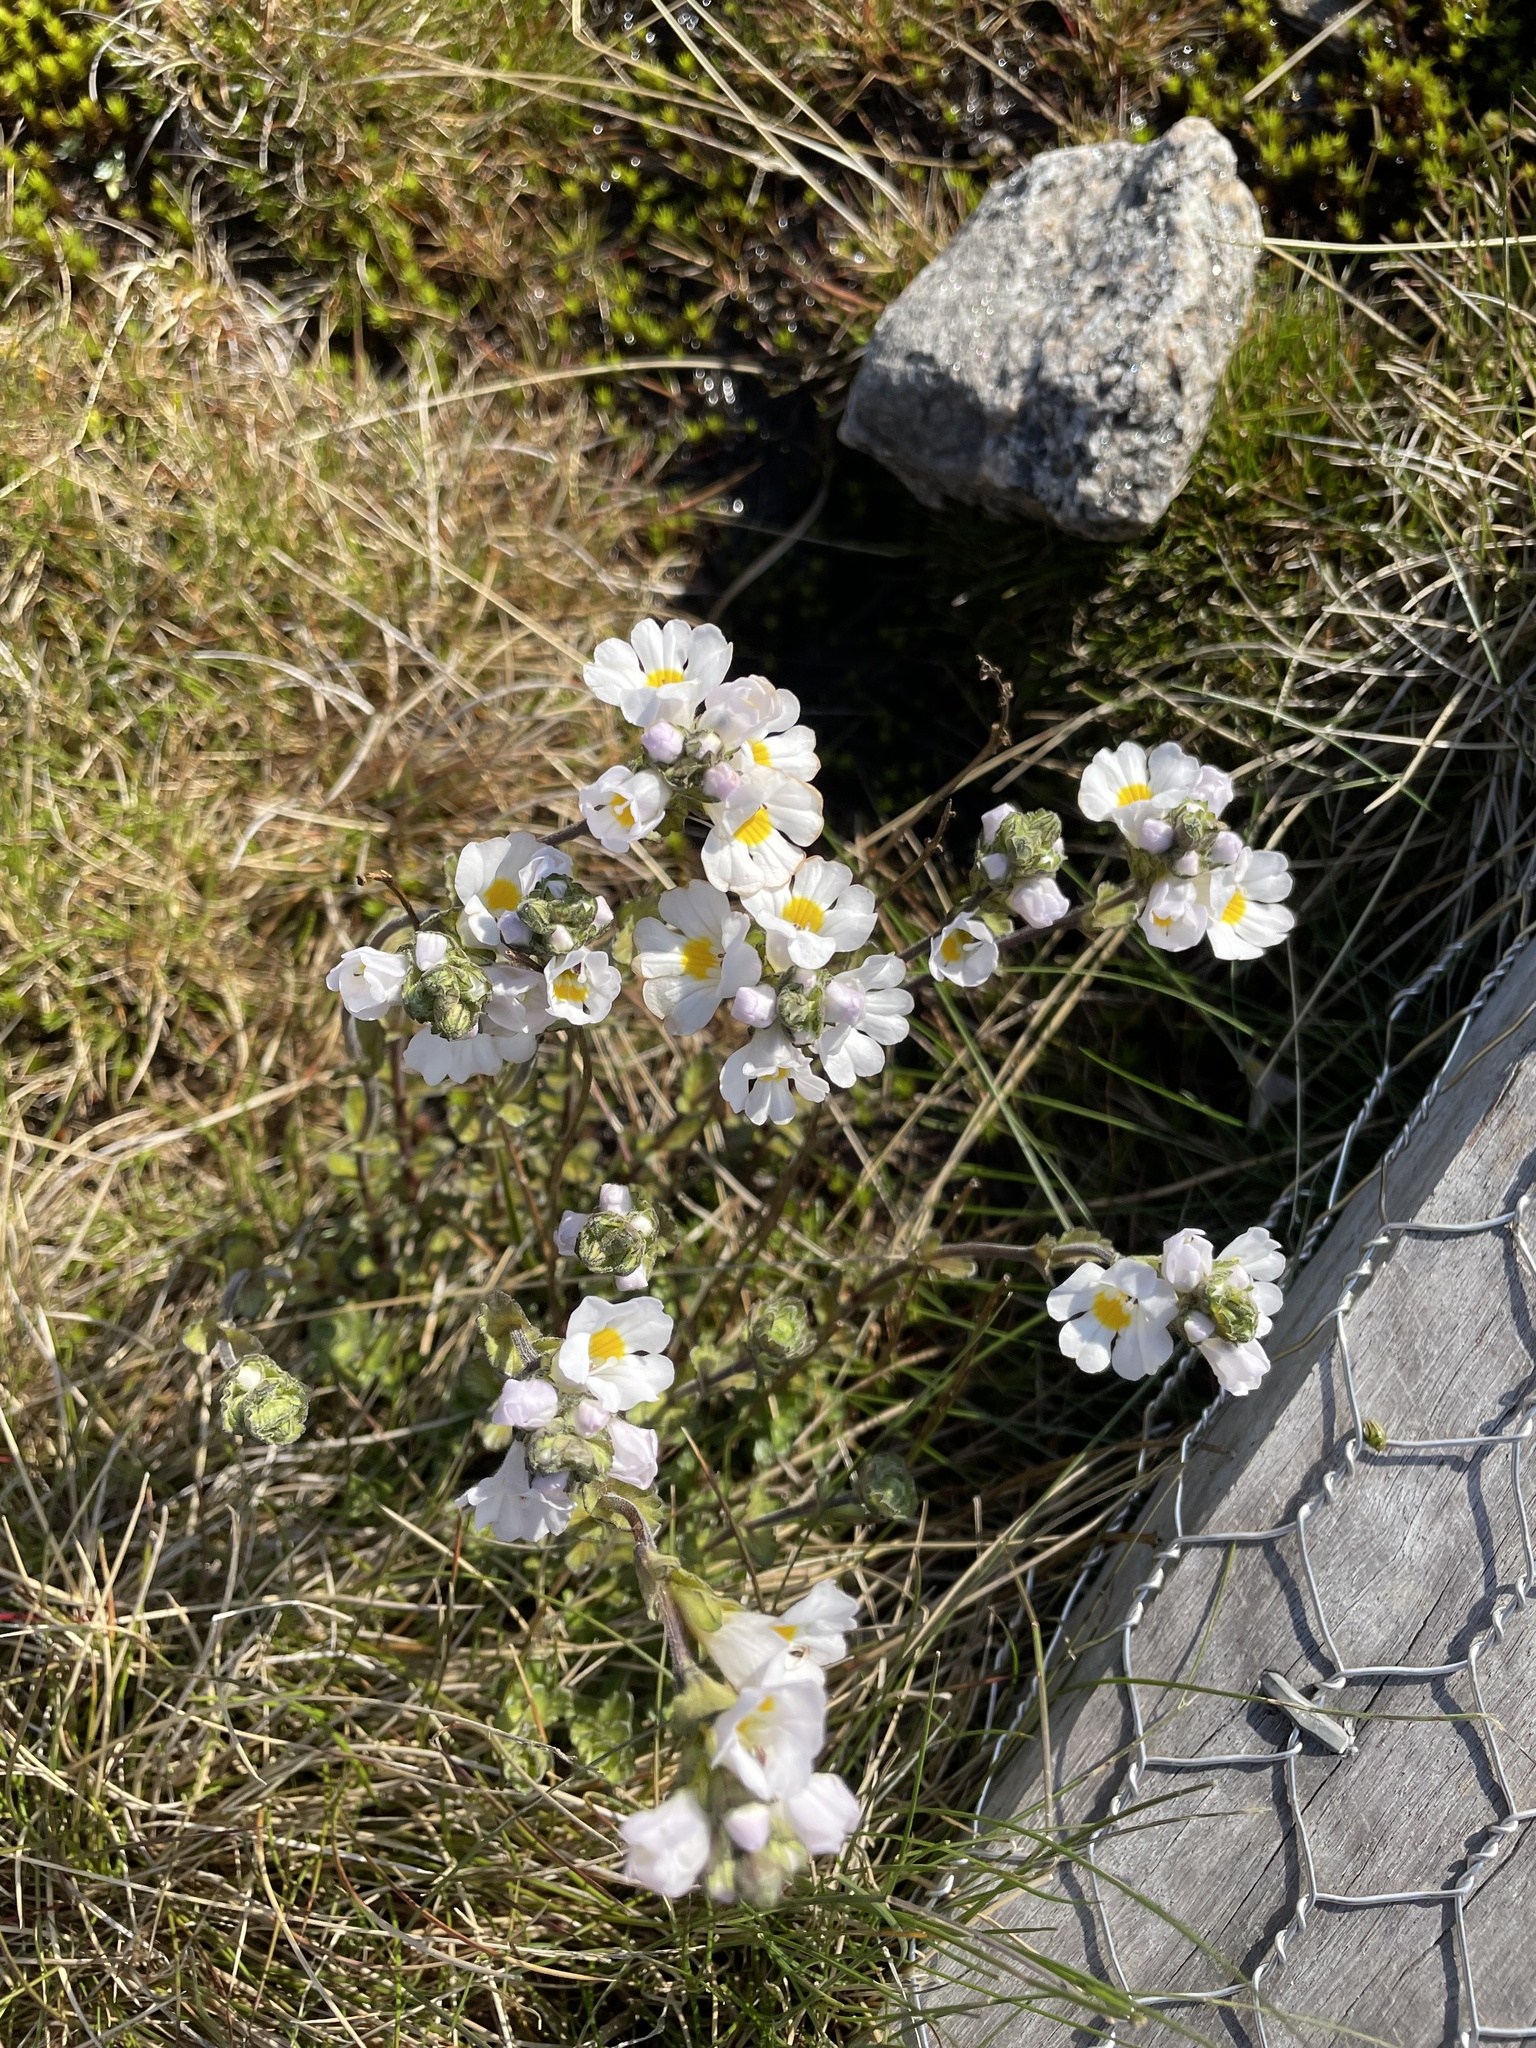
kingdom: Plantae
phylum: Tracheophyta
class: Magnoliopsida
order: Lamiales
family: Orobanchaceae
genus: Euphrasia
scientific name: Euphrasia collina
